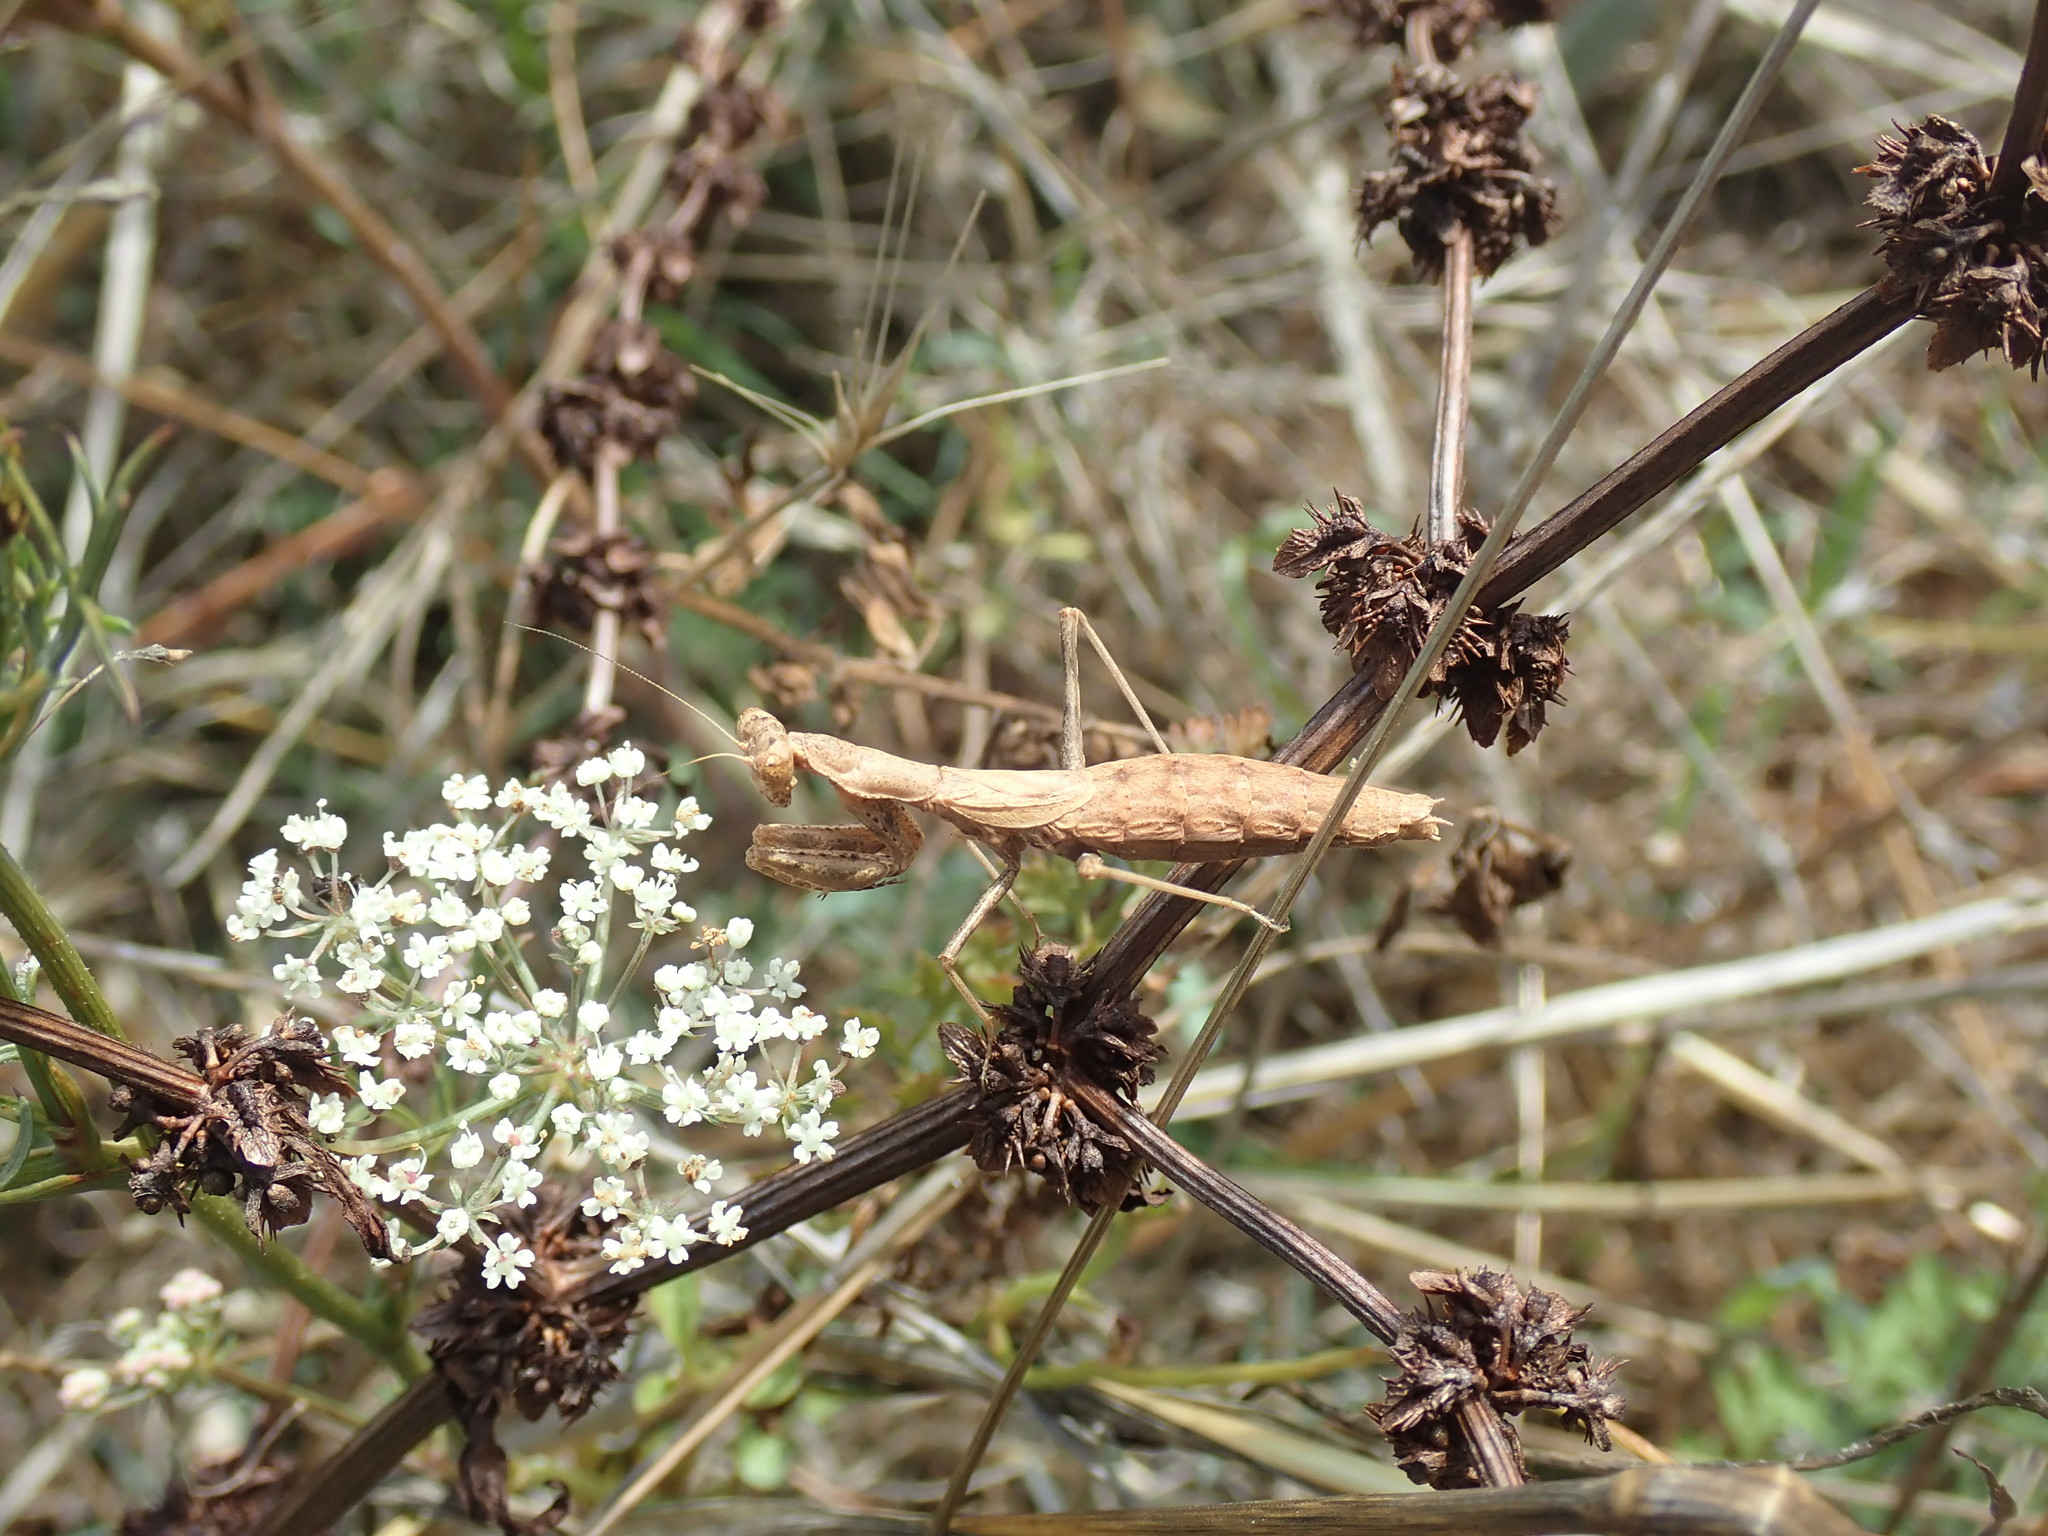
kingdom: Animalia
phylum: Arthropoda
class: Insecta
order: Mantodea
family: Amelidae
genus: Ameles
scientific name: Ameles decolor
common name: Dwarf mantis
